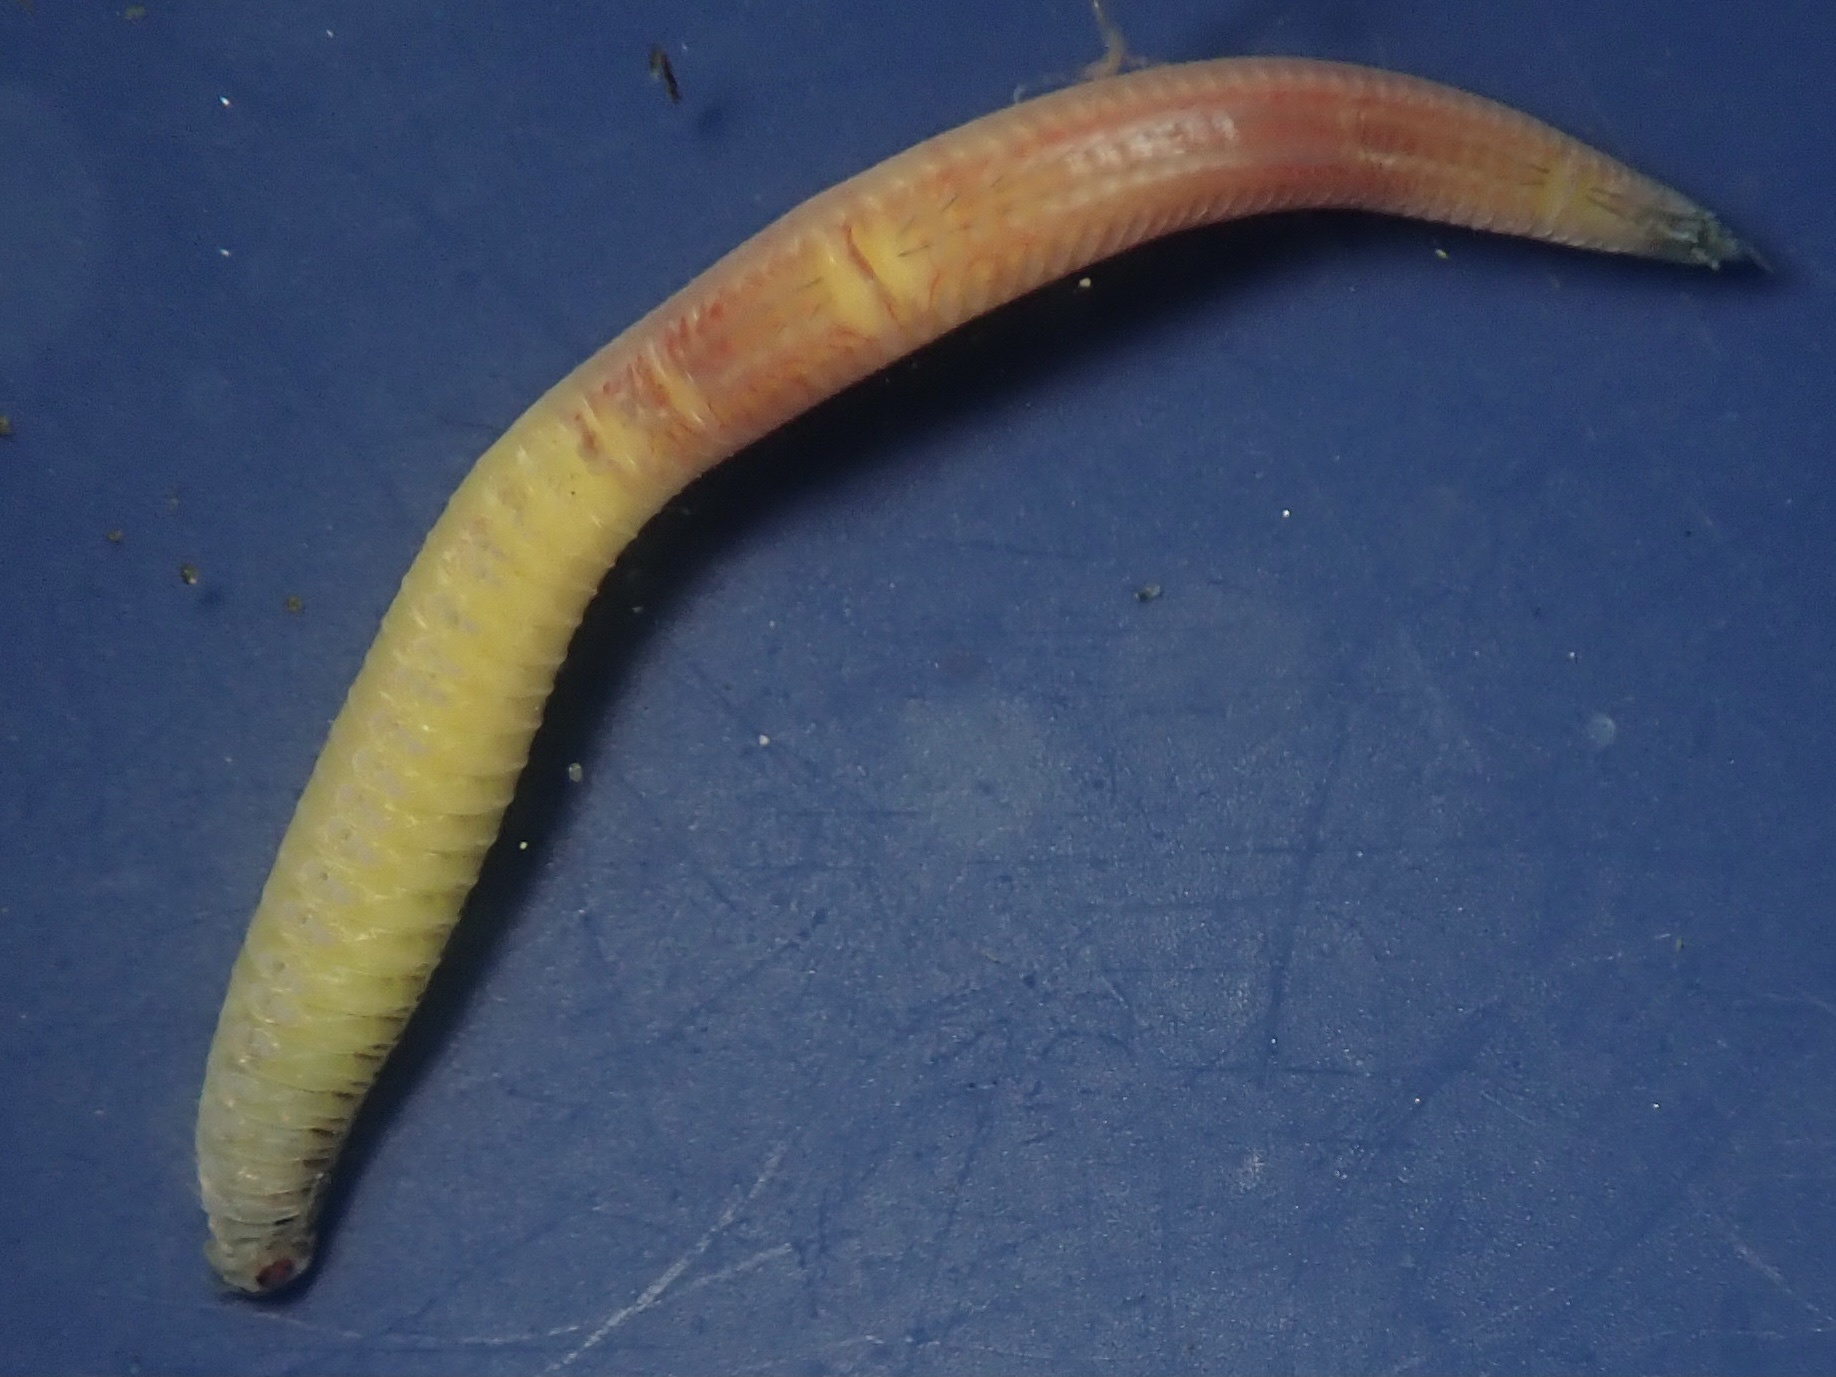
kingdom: Animalia
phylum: Annelida
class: Polychaeta
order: Phyllodocida
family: Nereididae
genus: Nereis
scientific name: Nereis latescens
